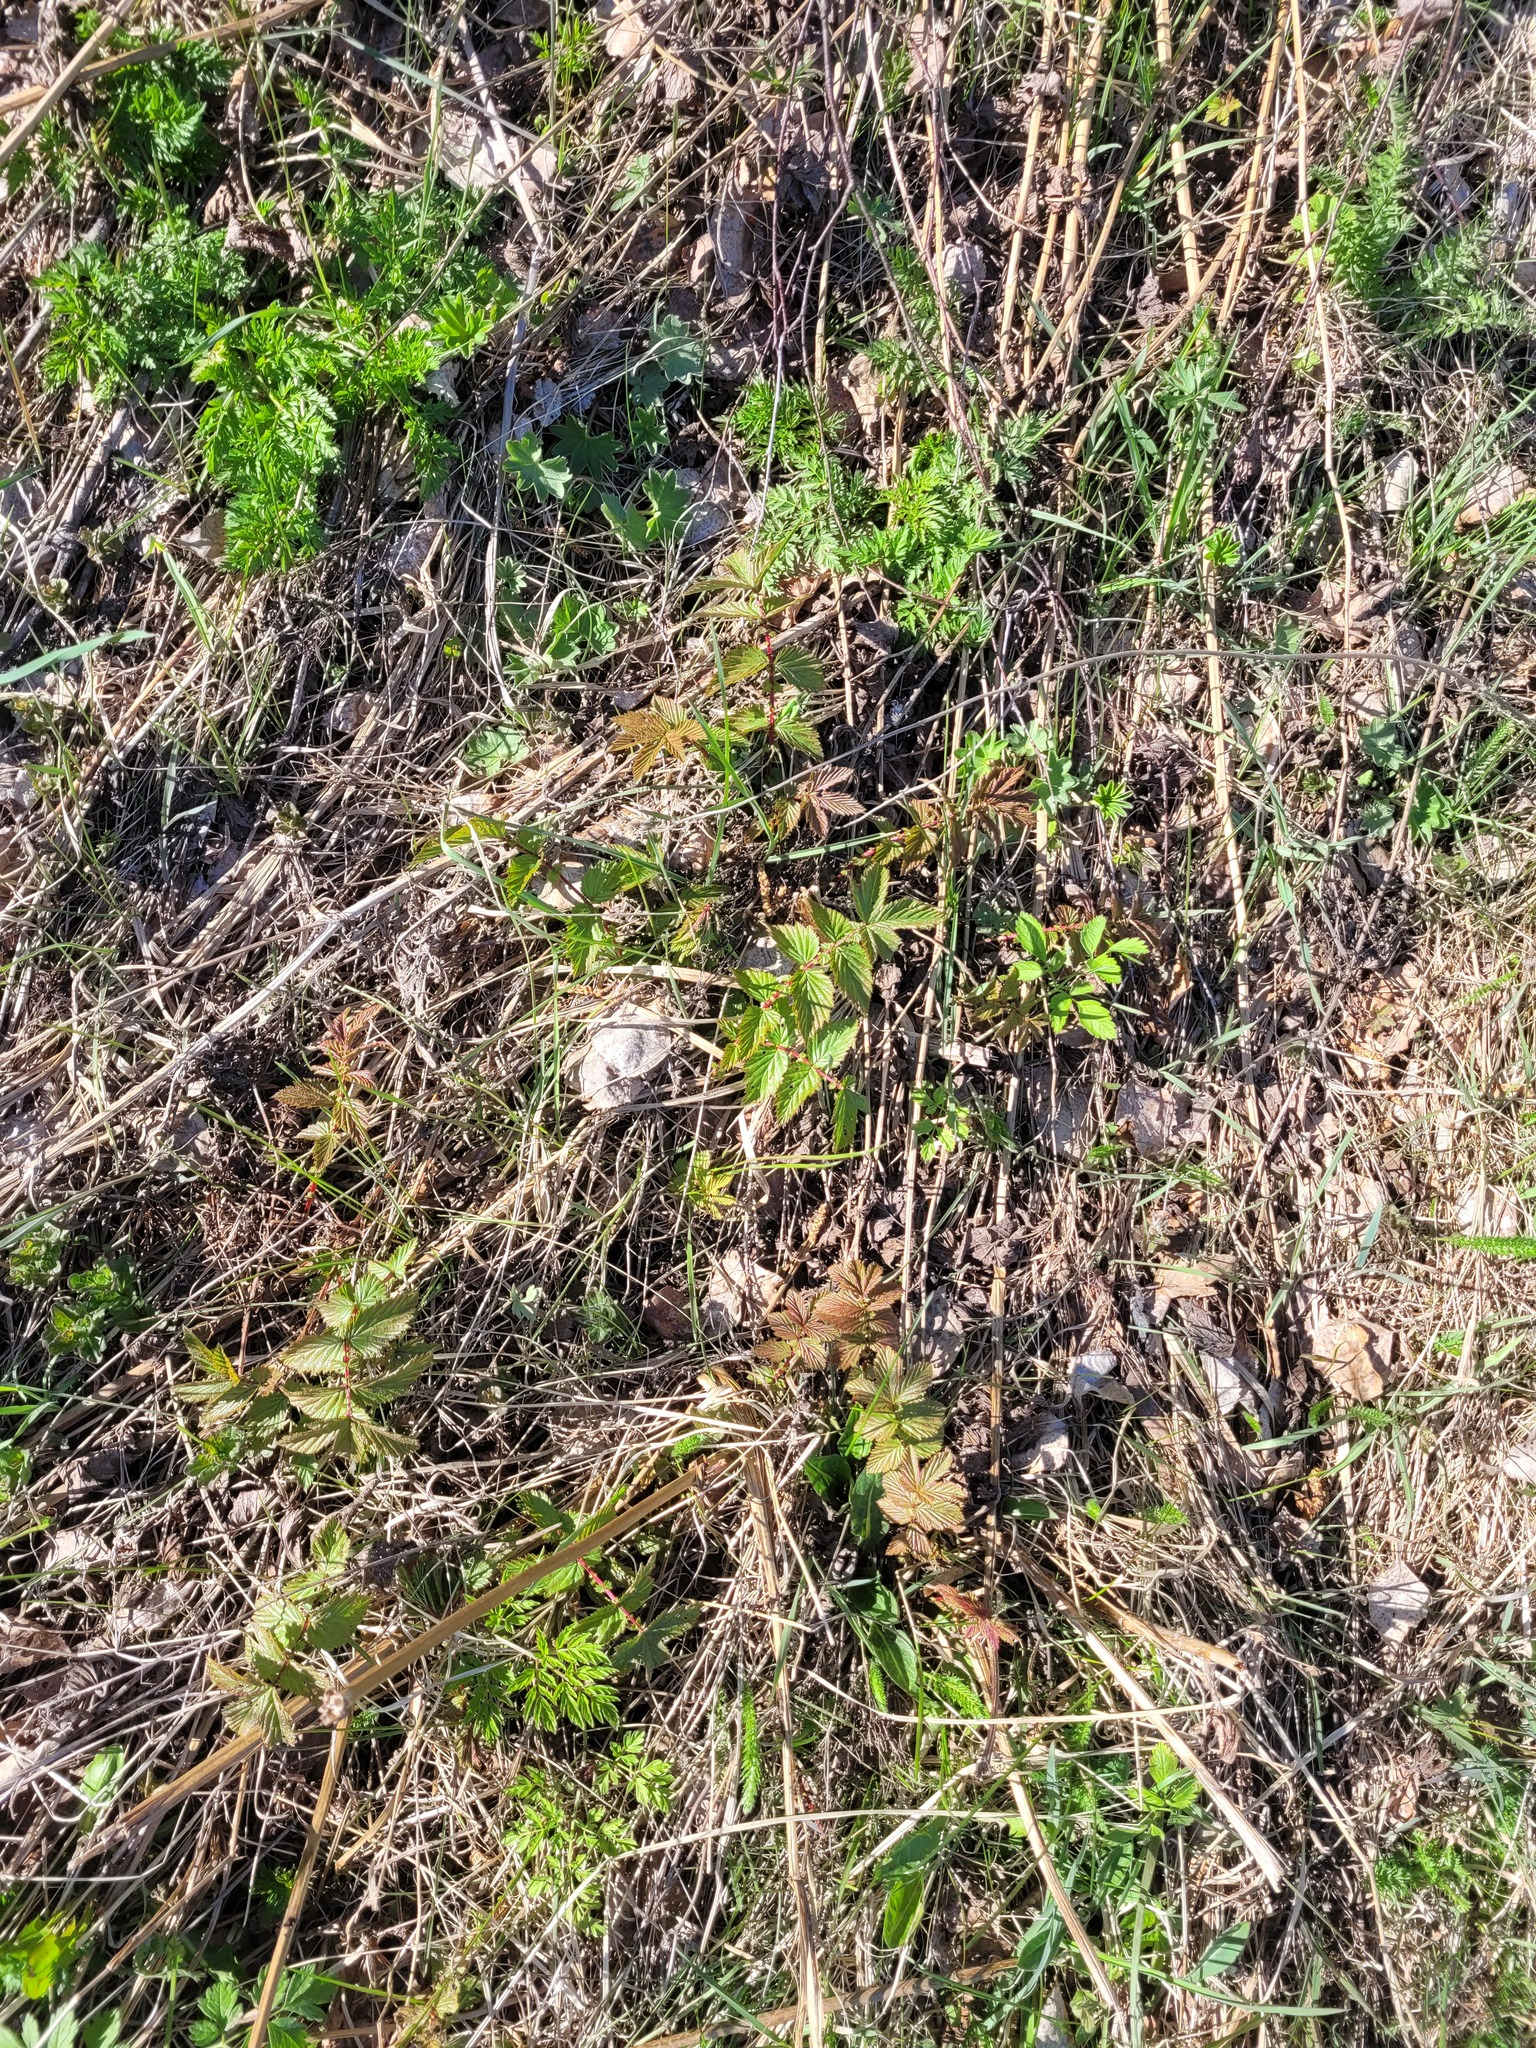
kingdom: Plantae
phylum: Tracheophyta
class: Magnoliopsida
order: Rosales
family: Rosaceae
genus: Filipendula
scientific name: Filipendula ulmaria
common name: Meadowsweet
